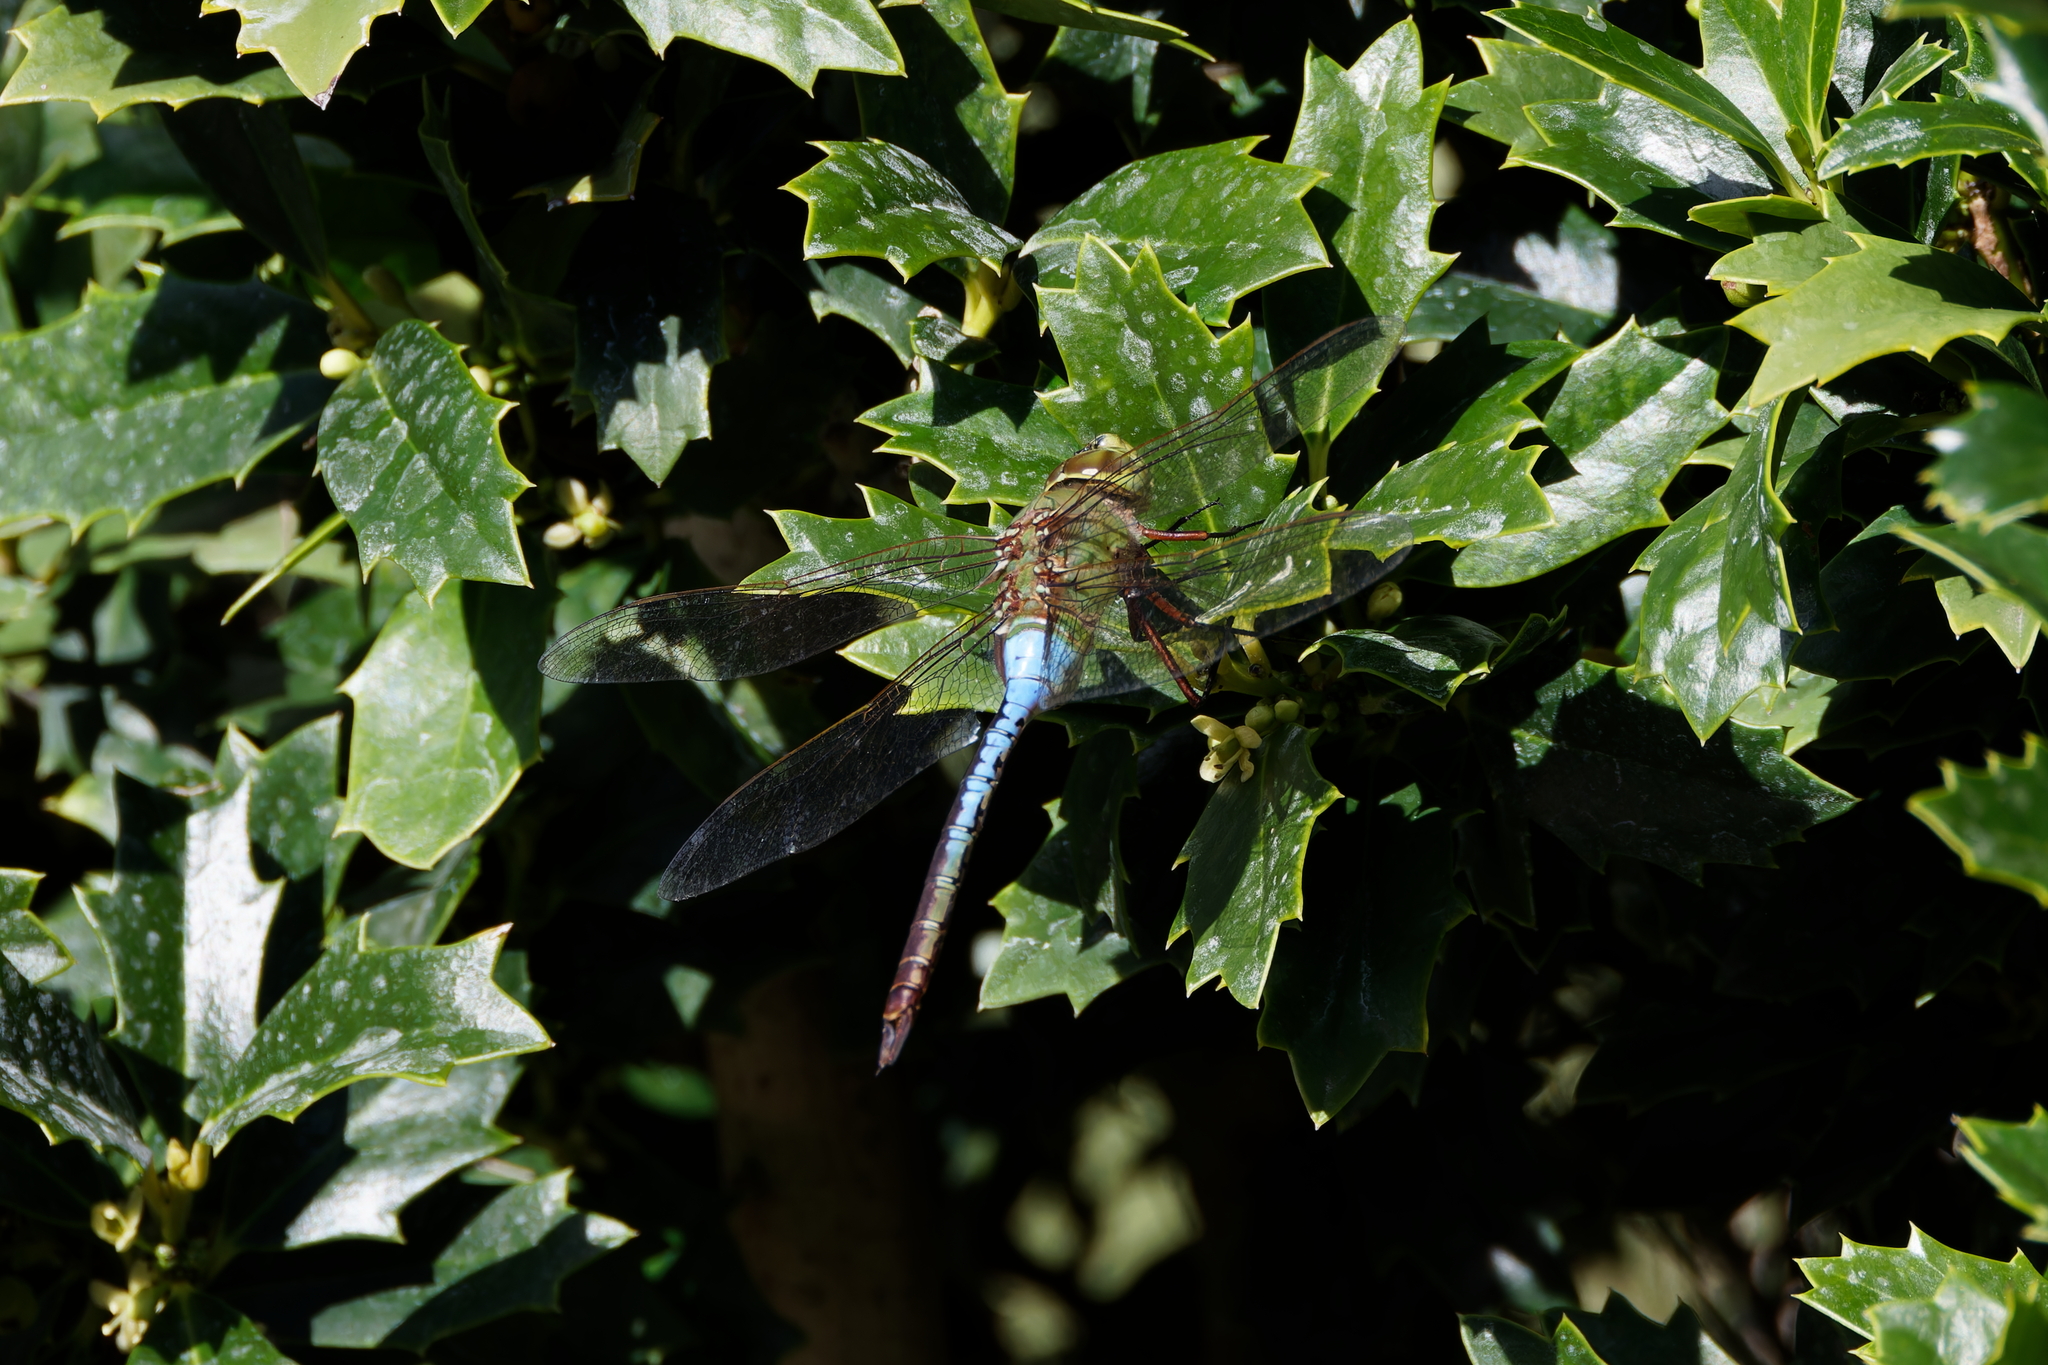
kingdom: Animalia
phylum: Arthropoda
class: Insecta
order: Odonata
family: Aeshnidae
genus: Anax
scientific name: Anax junius
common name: Common green darner
